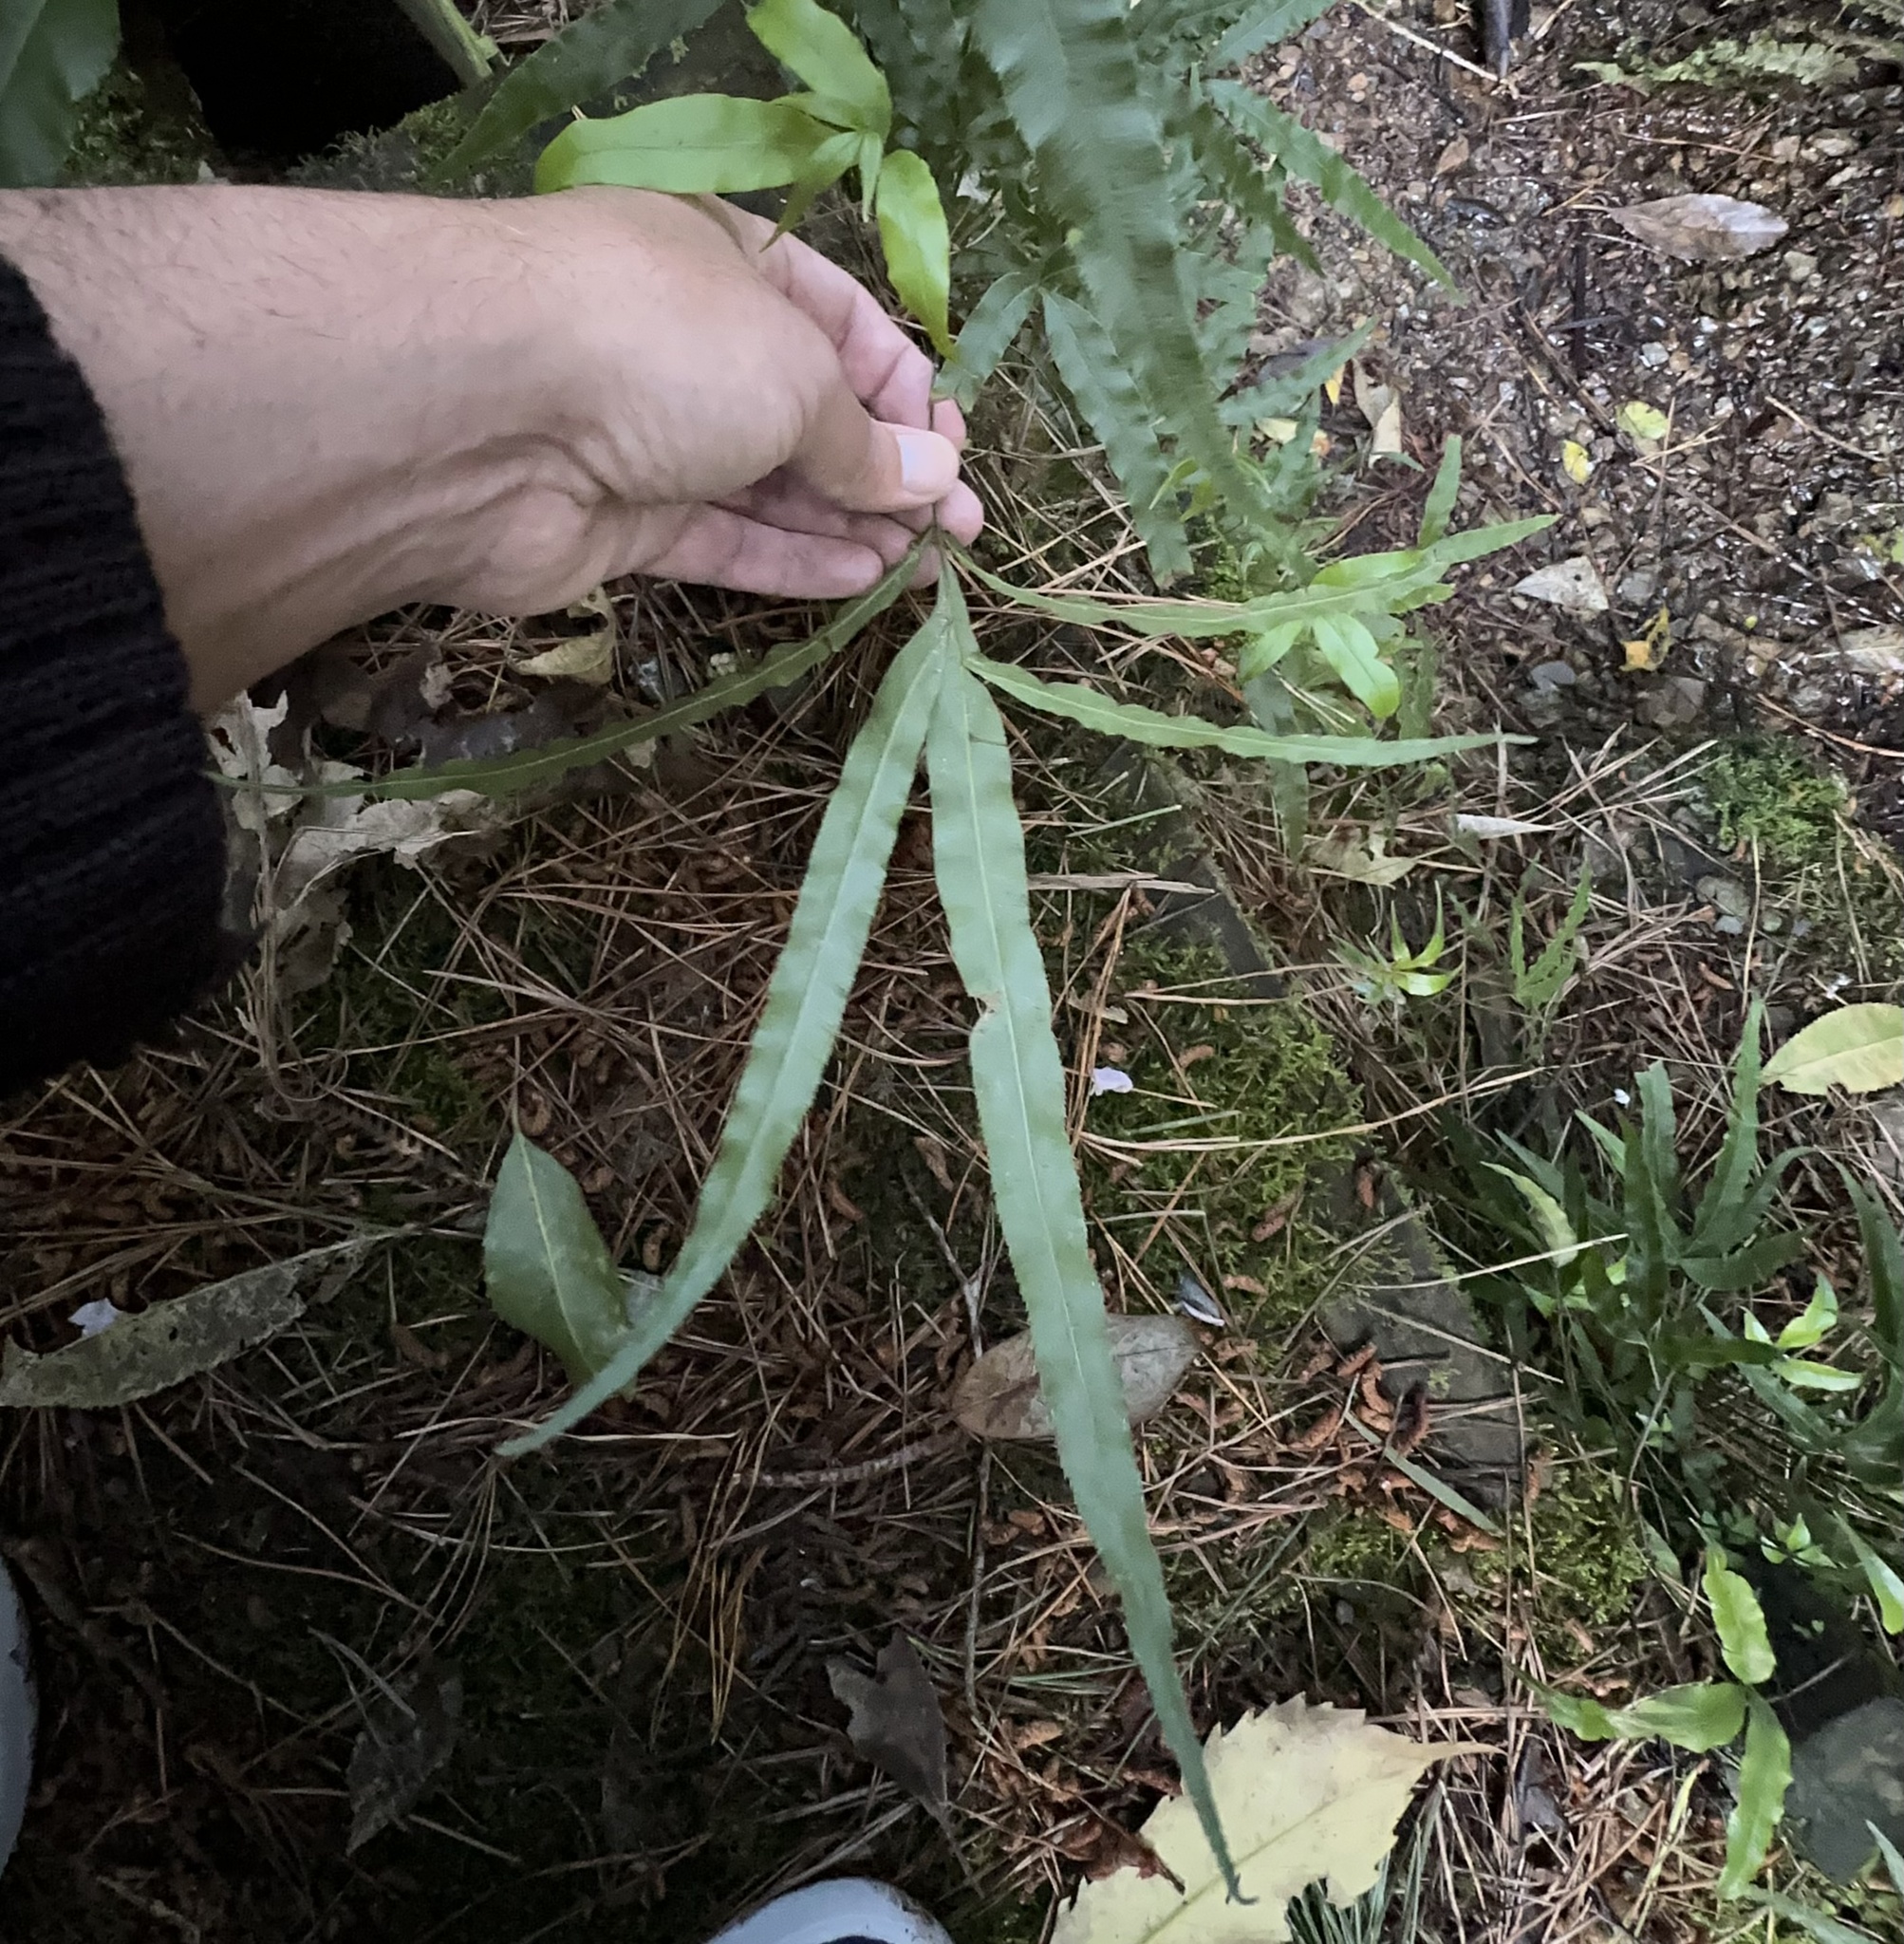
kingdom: Plantae
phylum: Tracheophyta
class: Polypodiopsida
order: Polypodiales
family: Pteridaceae
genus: Pteris
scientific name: Pteris cretica
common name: Ribbon fern
